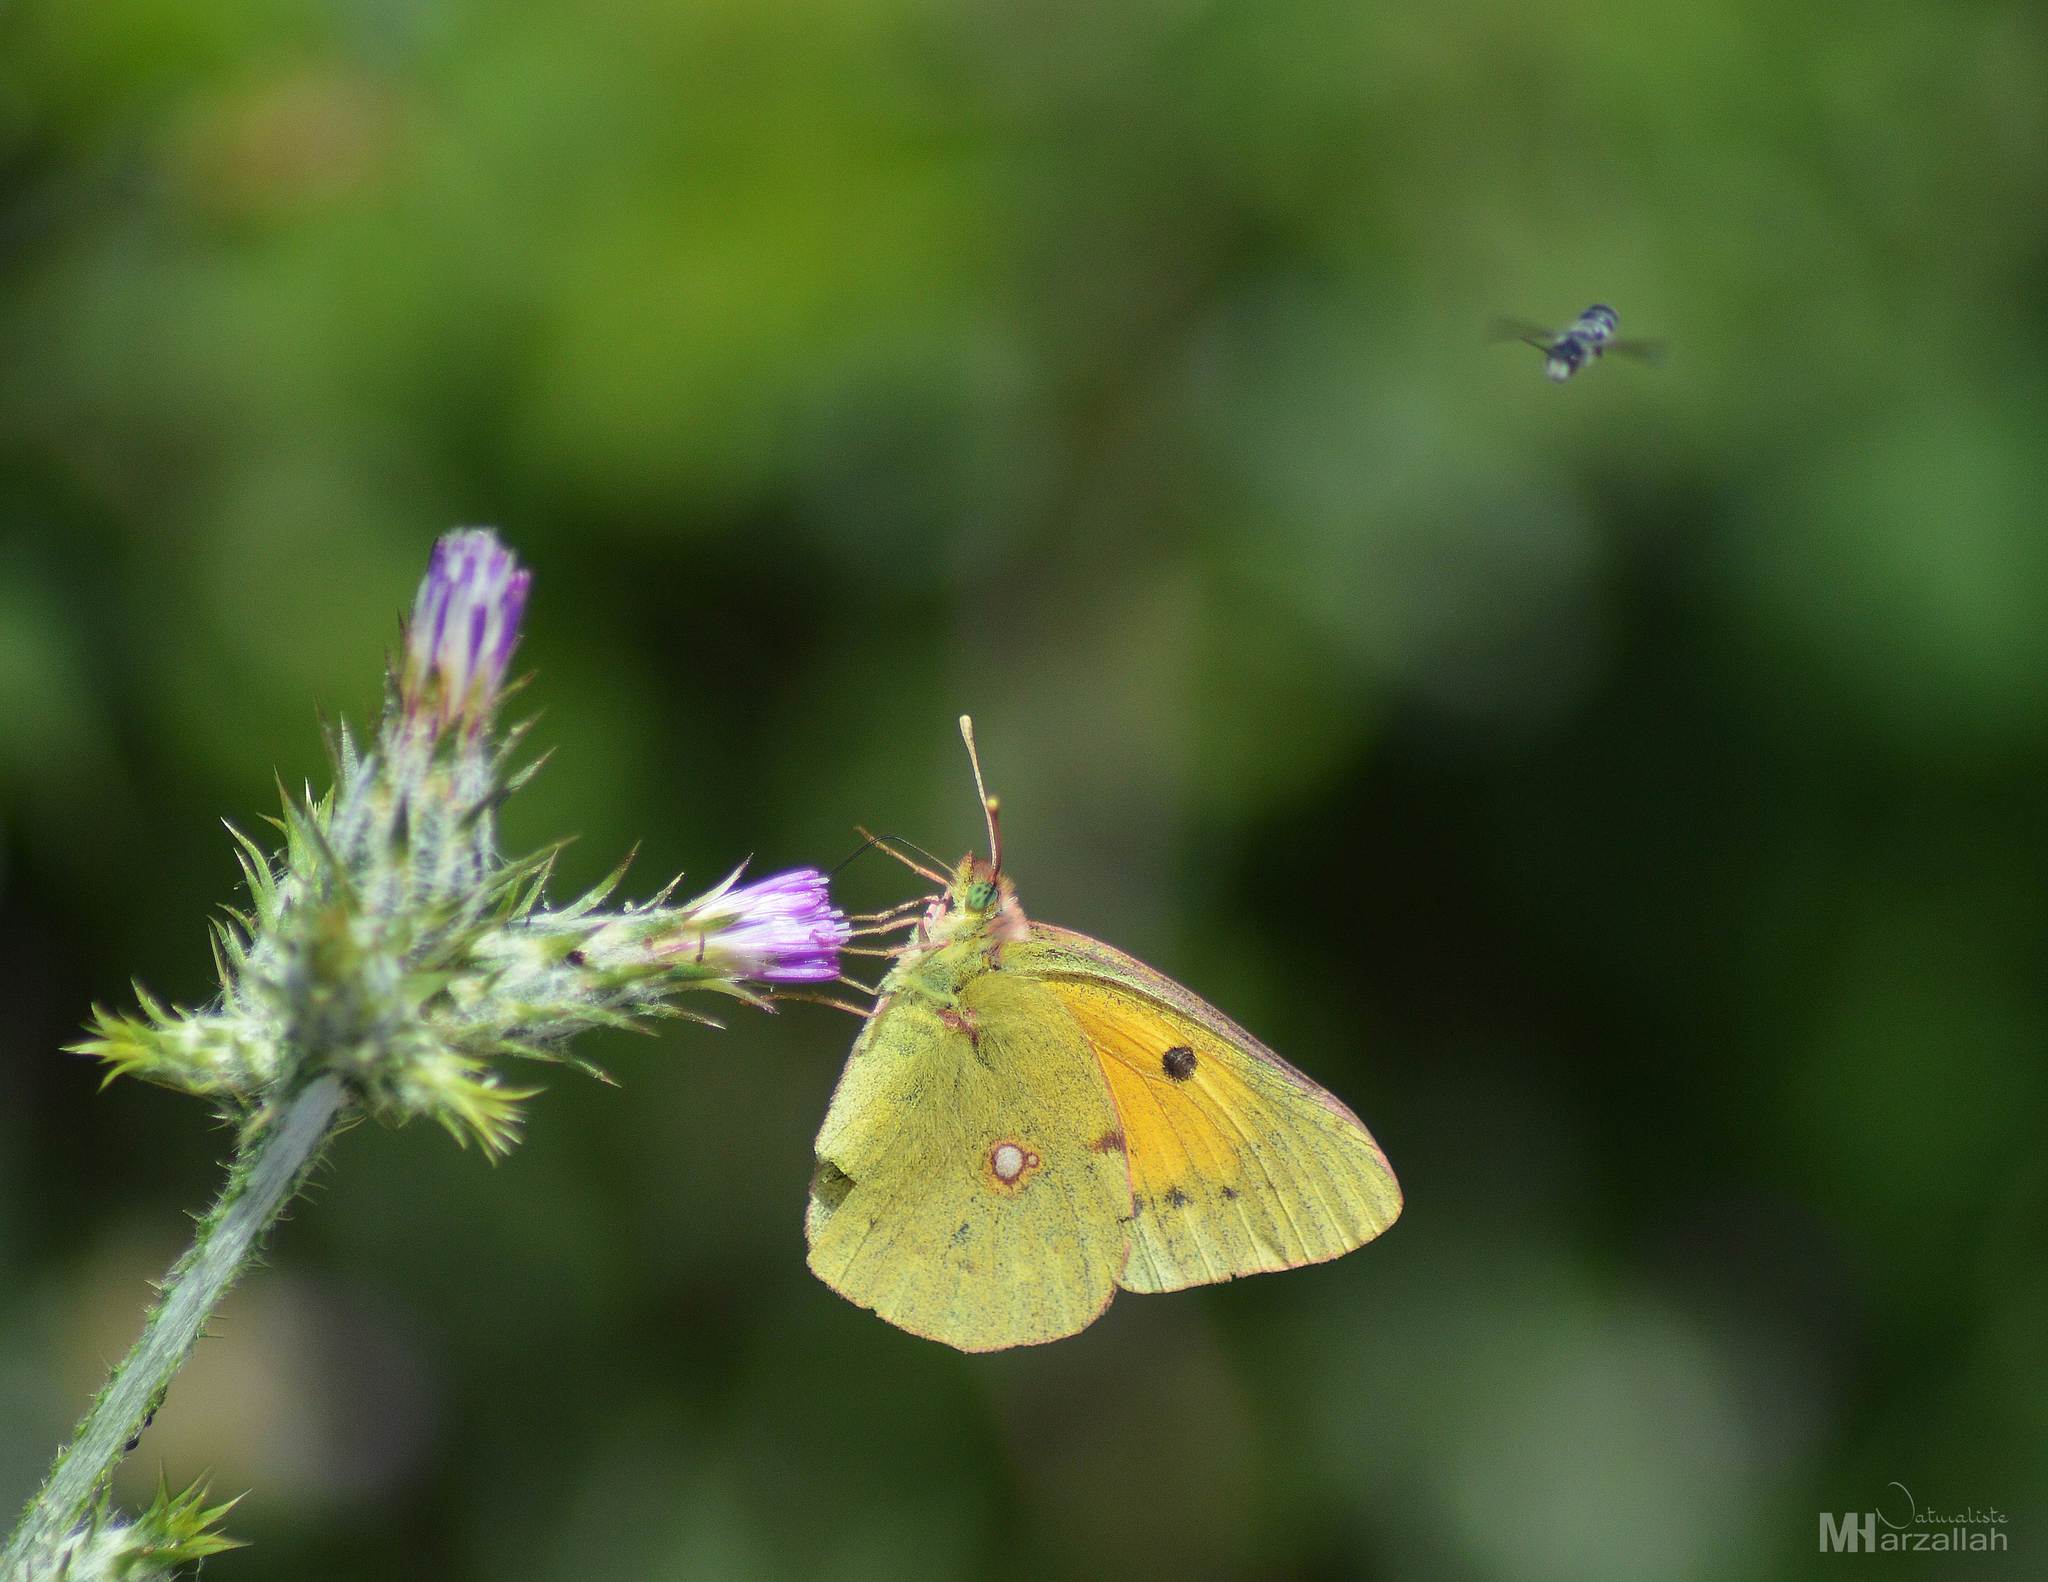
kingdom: Animalia
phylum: Arthropoda
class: Insecta
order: Lepidoptera
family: Pieridae
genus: Colias
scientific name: Colias croceus
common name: Clouded yellow
